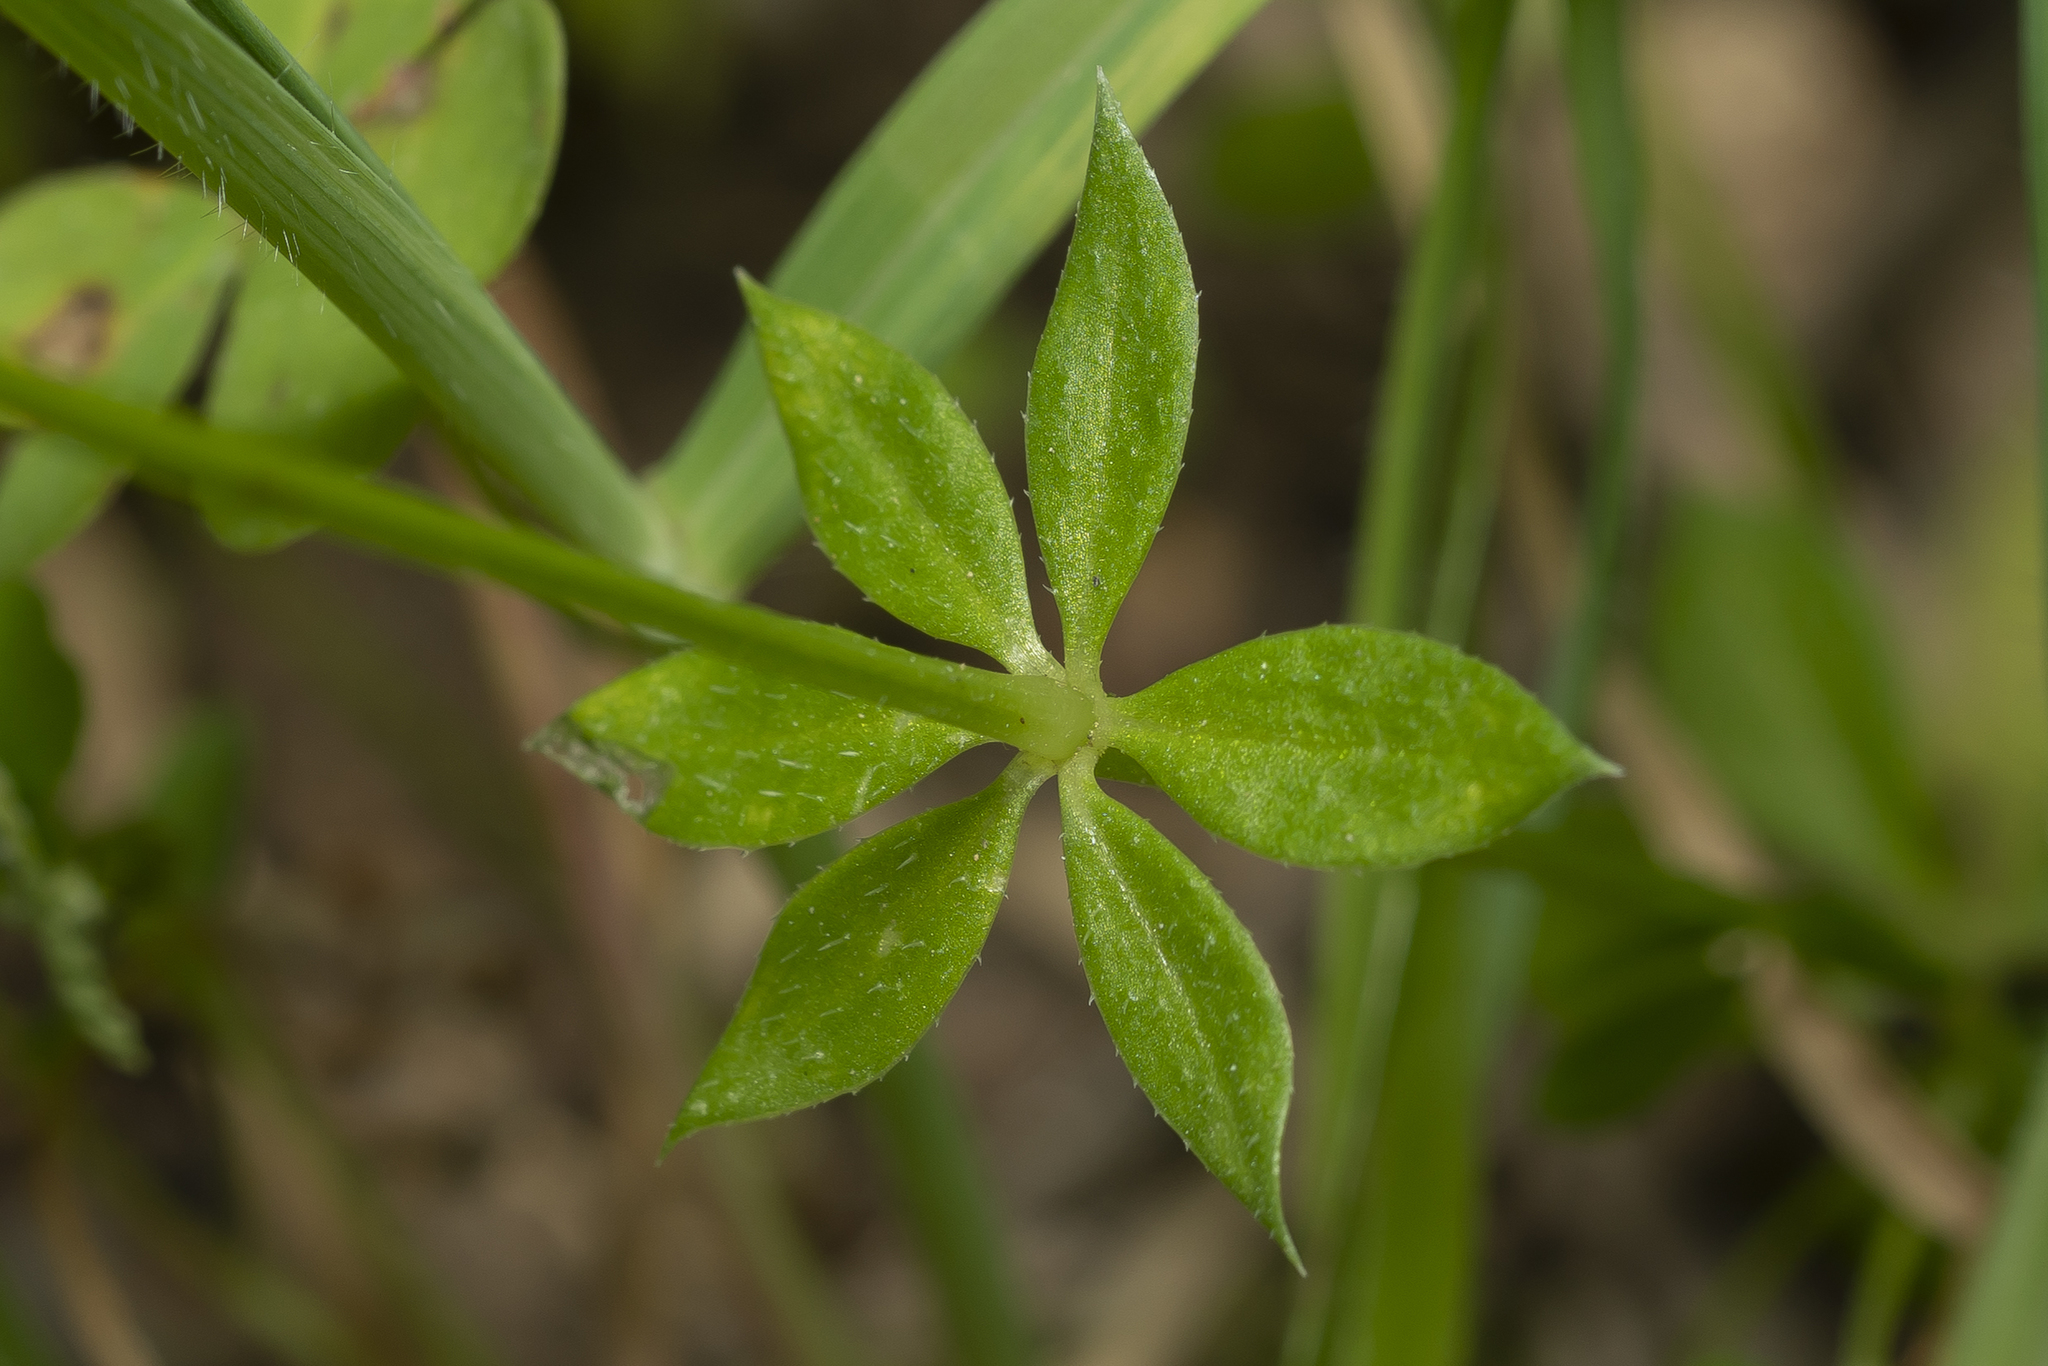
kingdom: Plantae
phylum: Tracheophyta
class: Magnoliopsida
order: Gentianales
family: Rubiaceae
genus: Sherardia
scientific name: Sherardia arvensis
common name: Field madder
